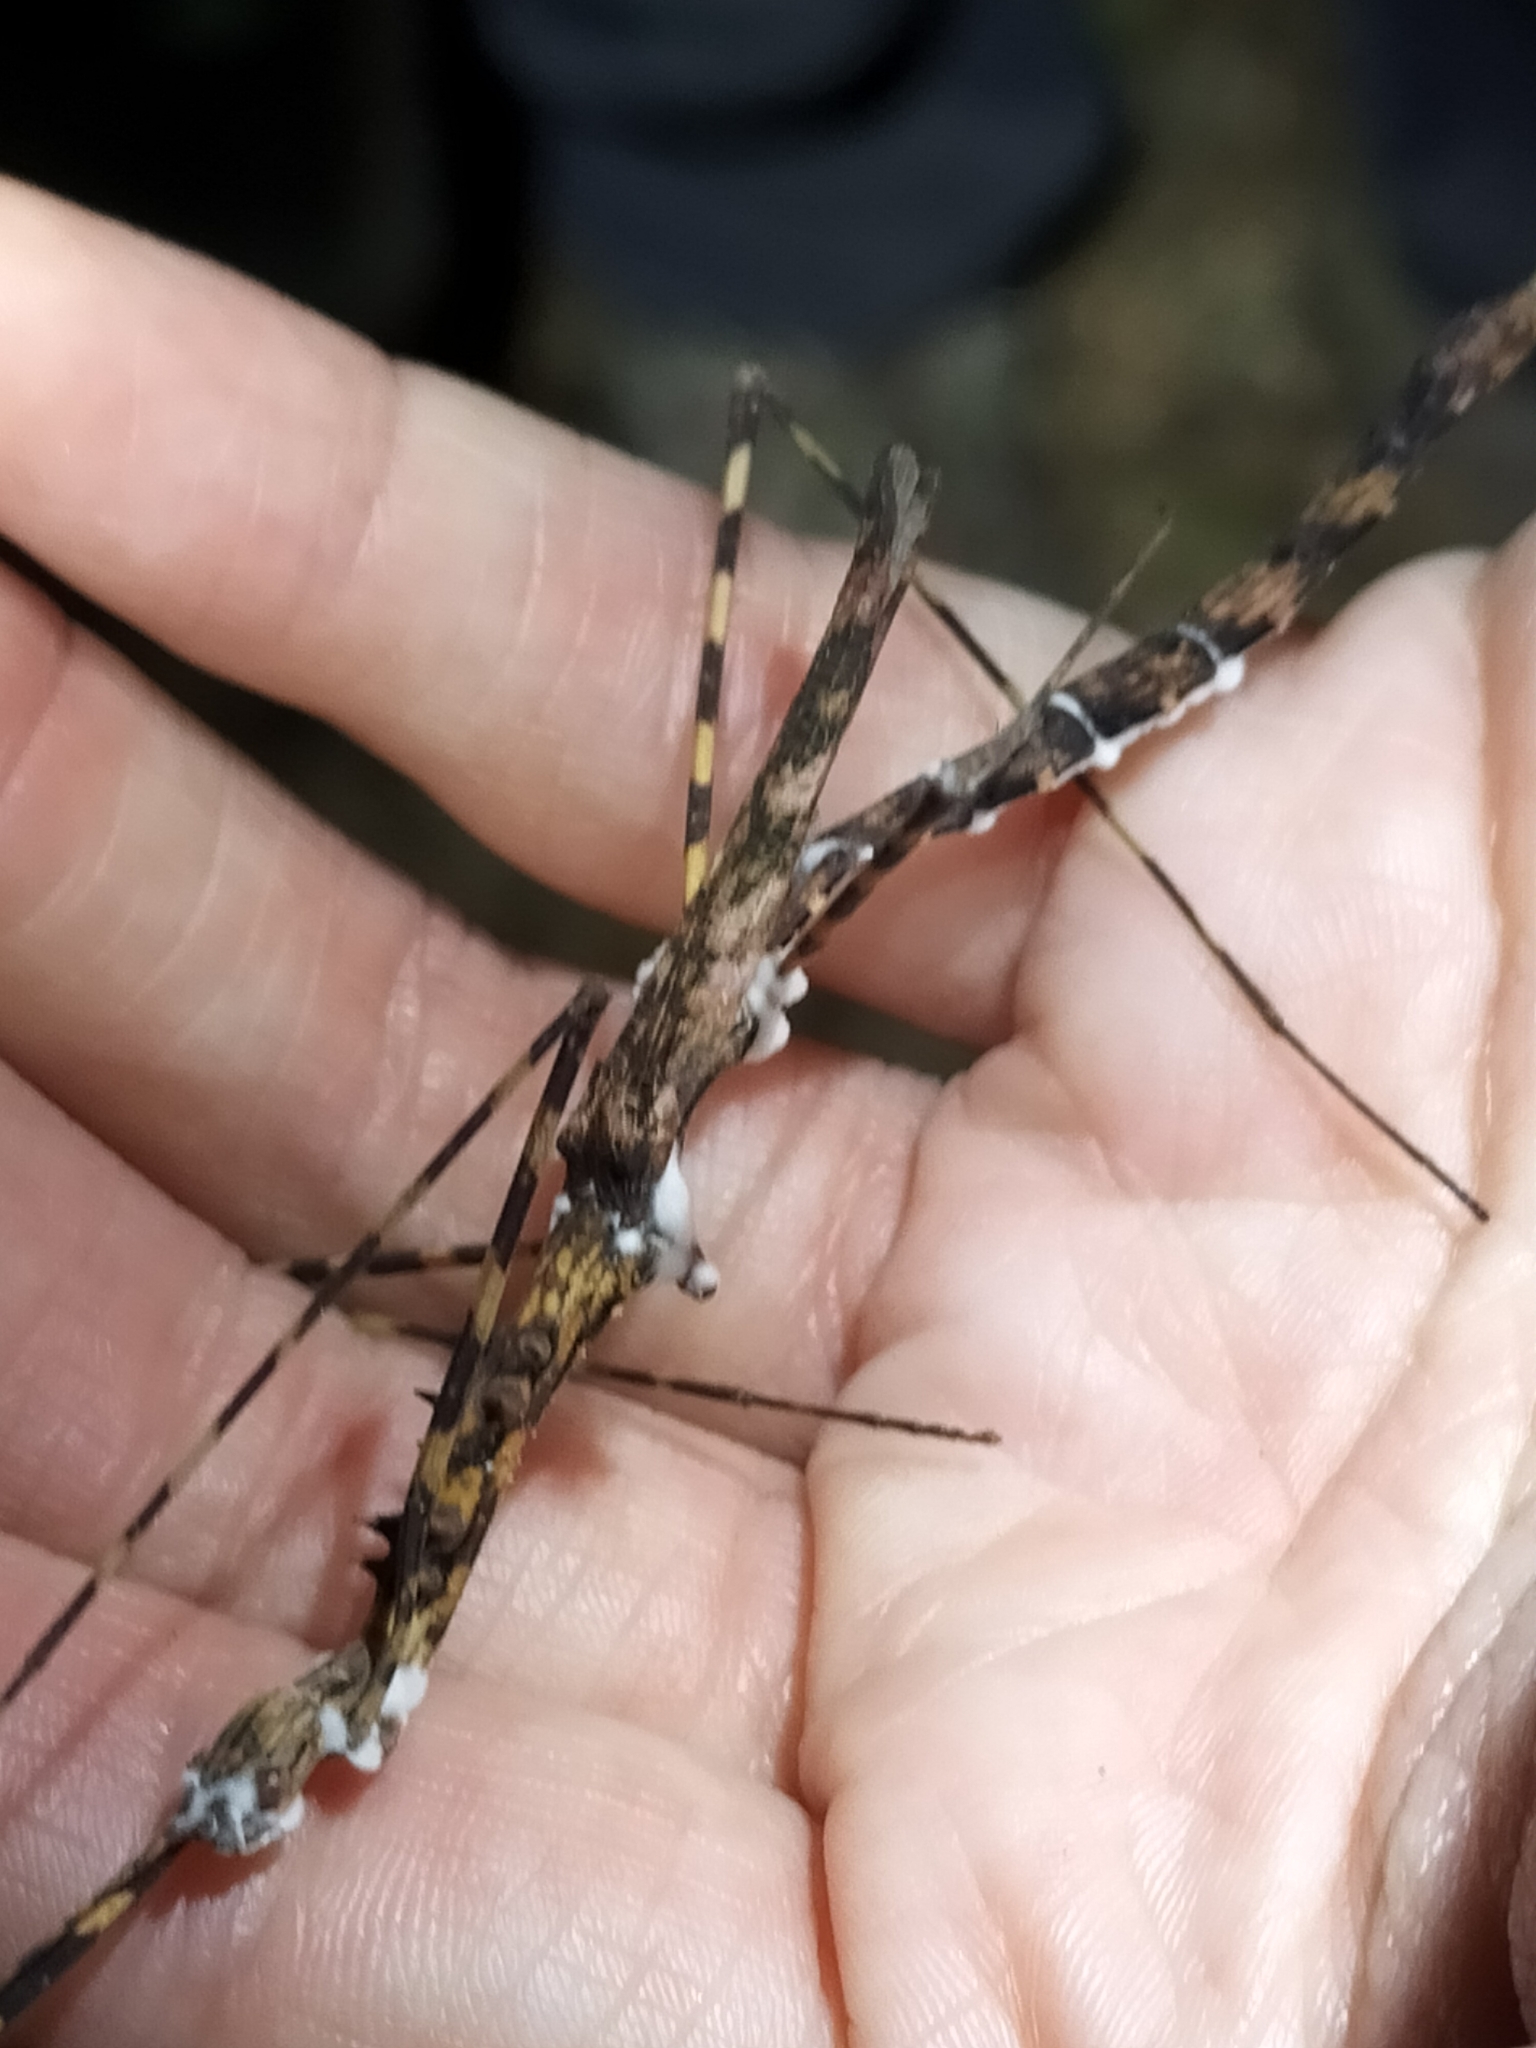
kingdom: Fungi
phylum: Ascomycota
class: Sordariomycetes
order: Hypocreales
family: Cordycipitaceae
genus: Beauveria
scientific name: Beauveria bassiana
